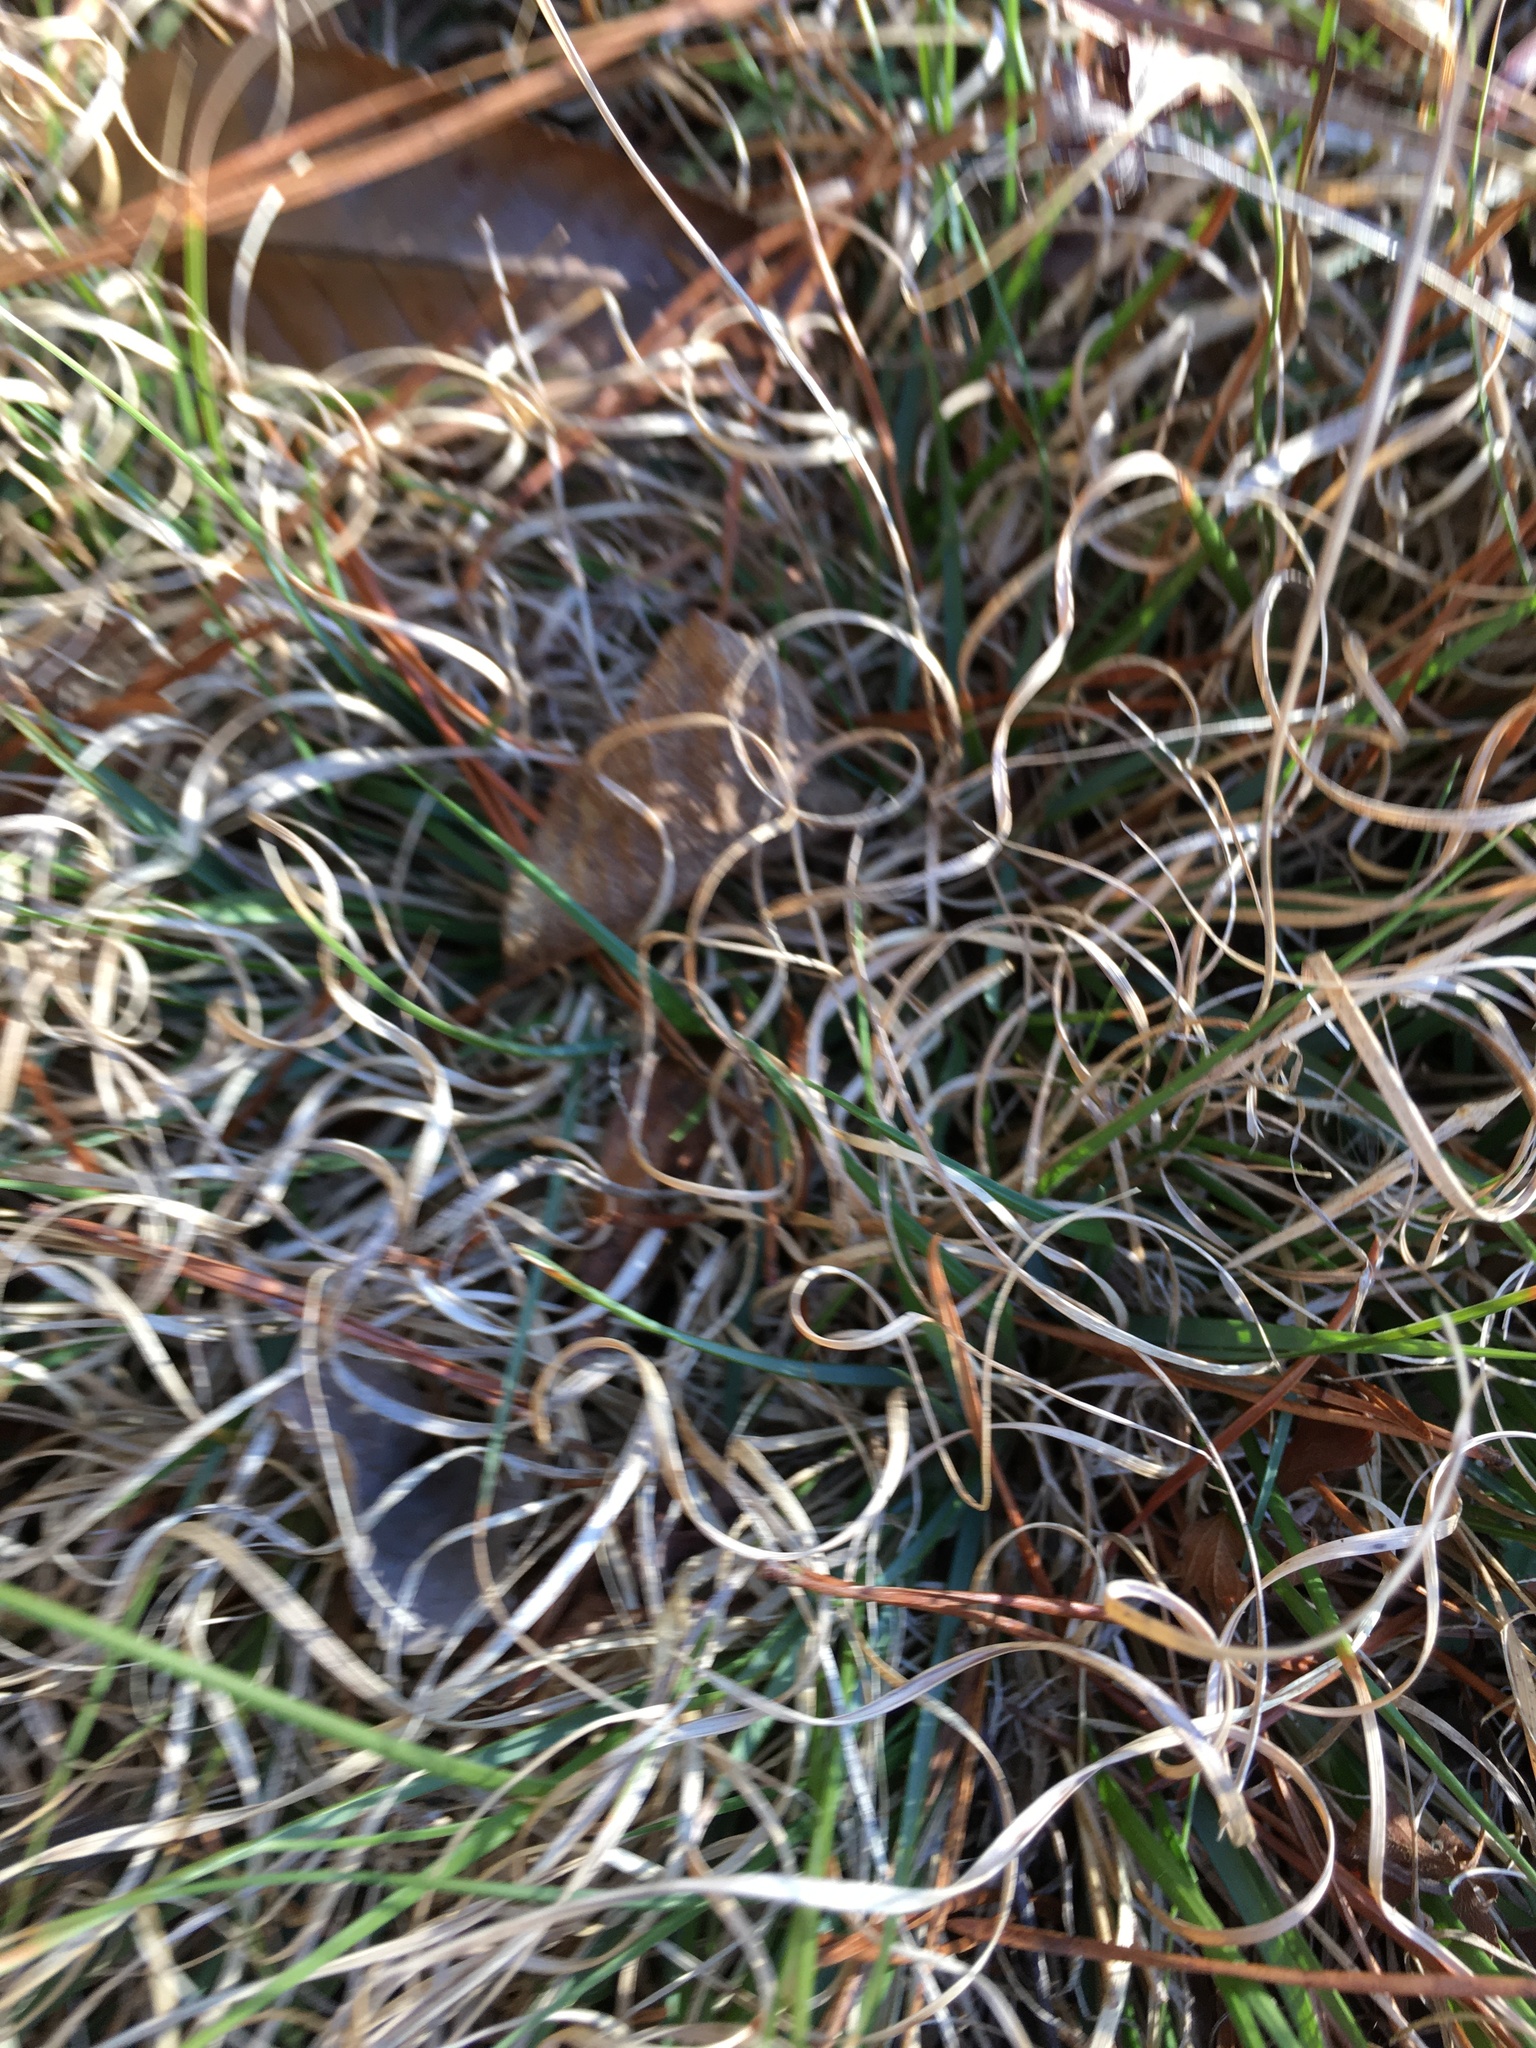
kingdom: Plantae
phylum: Tracheophyta
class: Liliopsida
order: Poales
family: Poaceae
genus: Danthonia
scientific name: Danthonia spicata
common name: Common wild oatgrass
